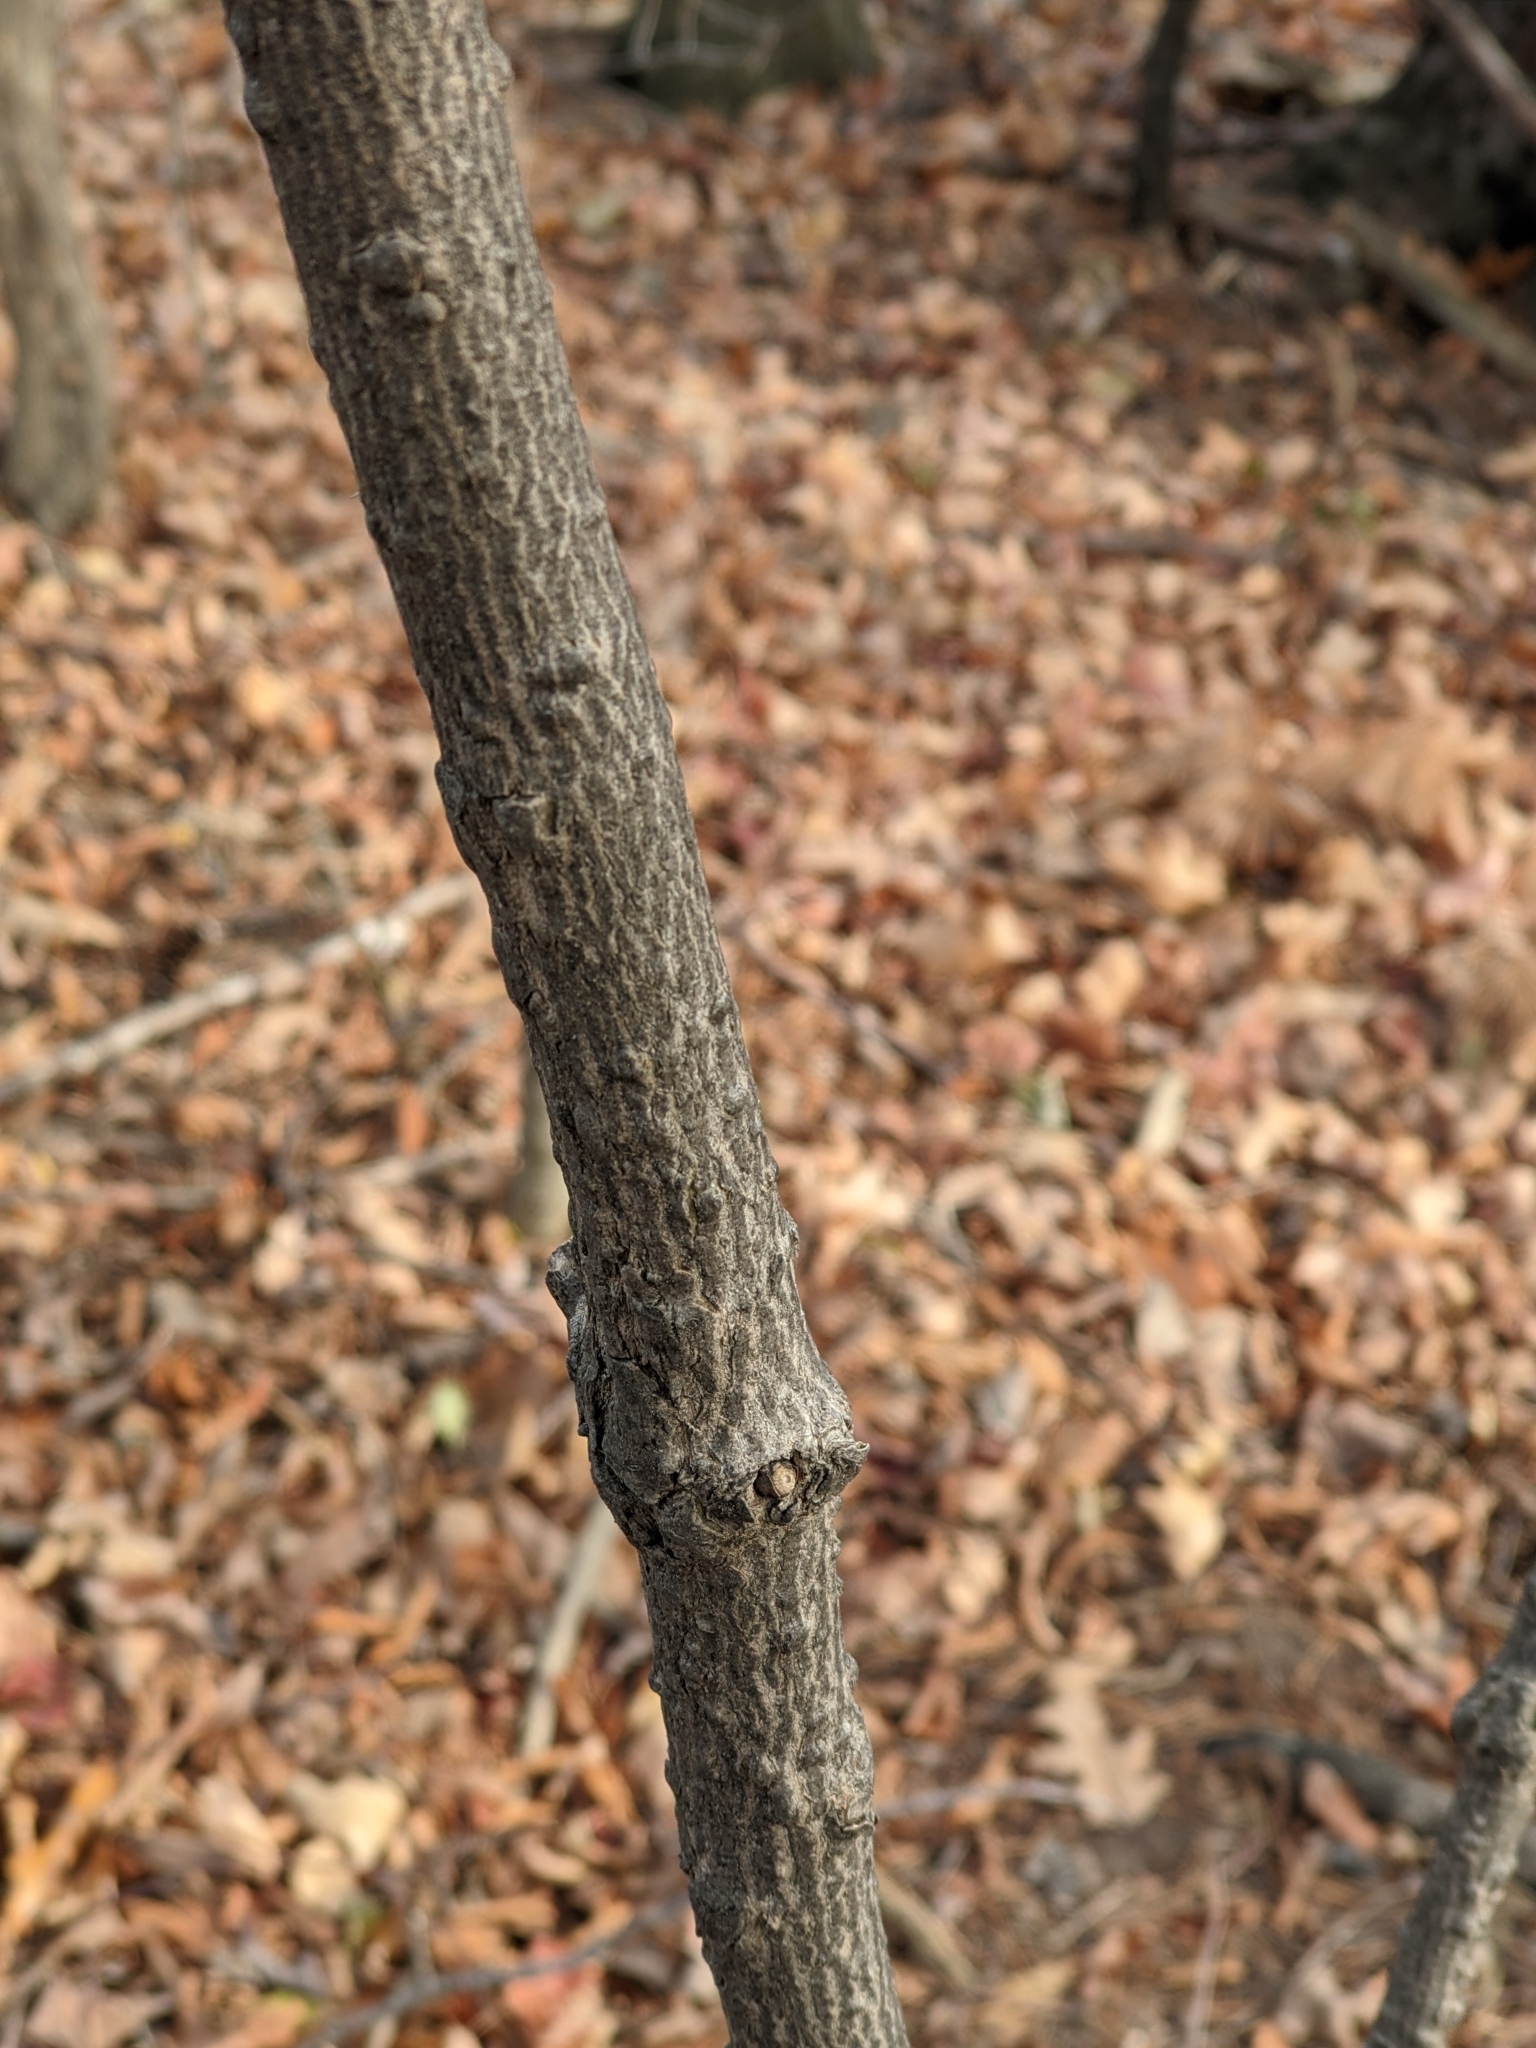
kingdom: Plantae
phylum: Tracheophyta
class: Magnoliopsida
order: Sapindales
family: Sapindaceae
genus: Acer
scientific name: Acer saccharum
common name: Sugar maple
